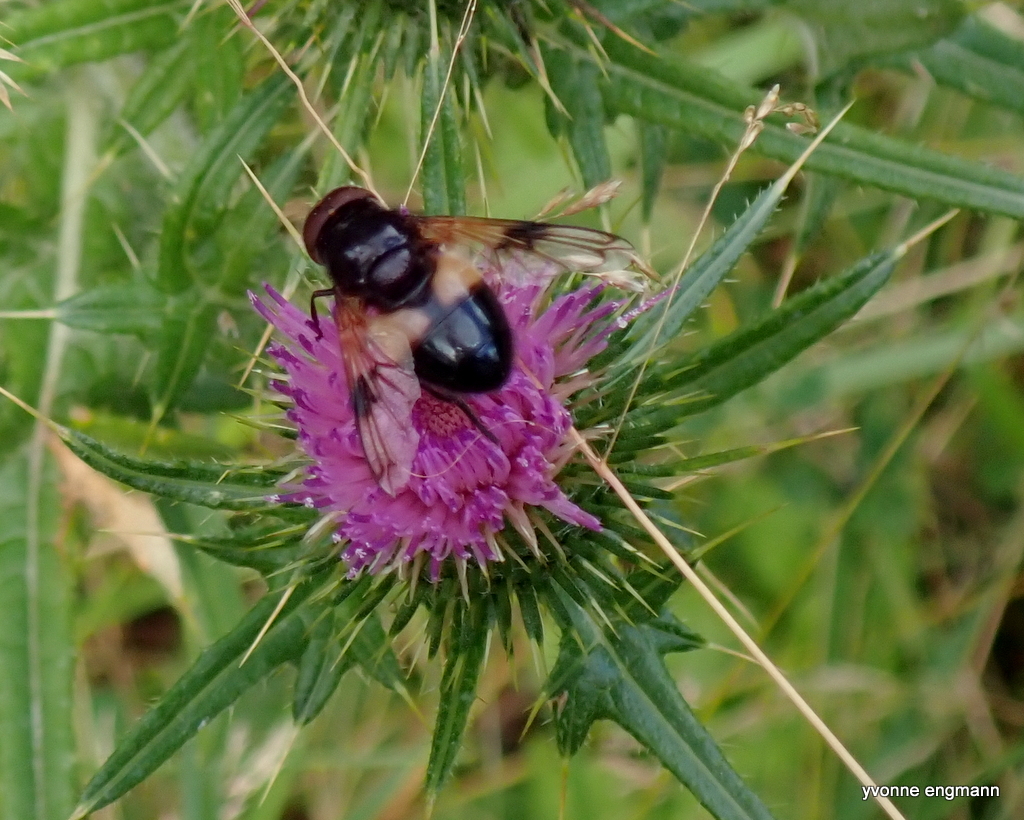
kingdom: Animalia
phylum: Arthropoda
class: Insecta
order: Diptera
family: Syrphidae
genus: Volucella
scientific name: Volucella pellucens
